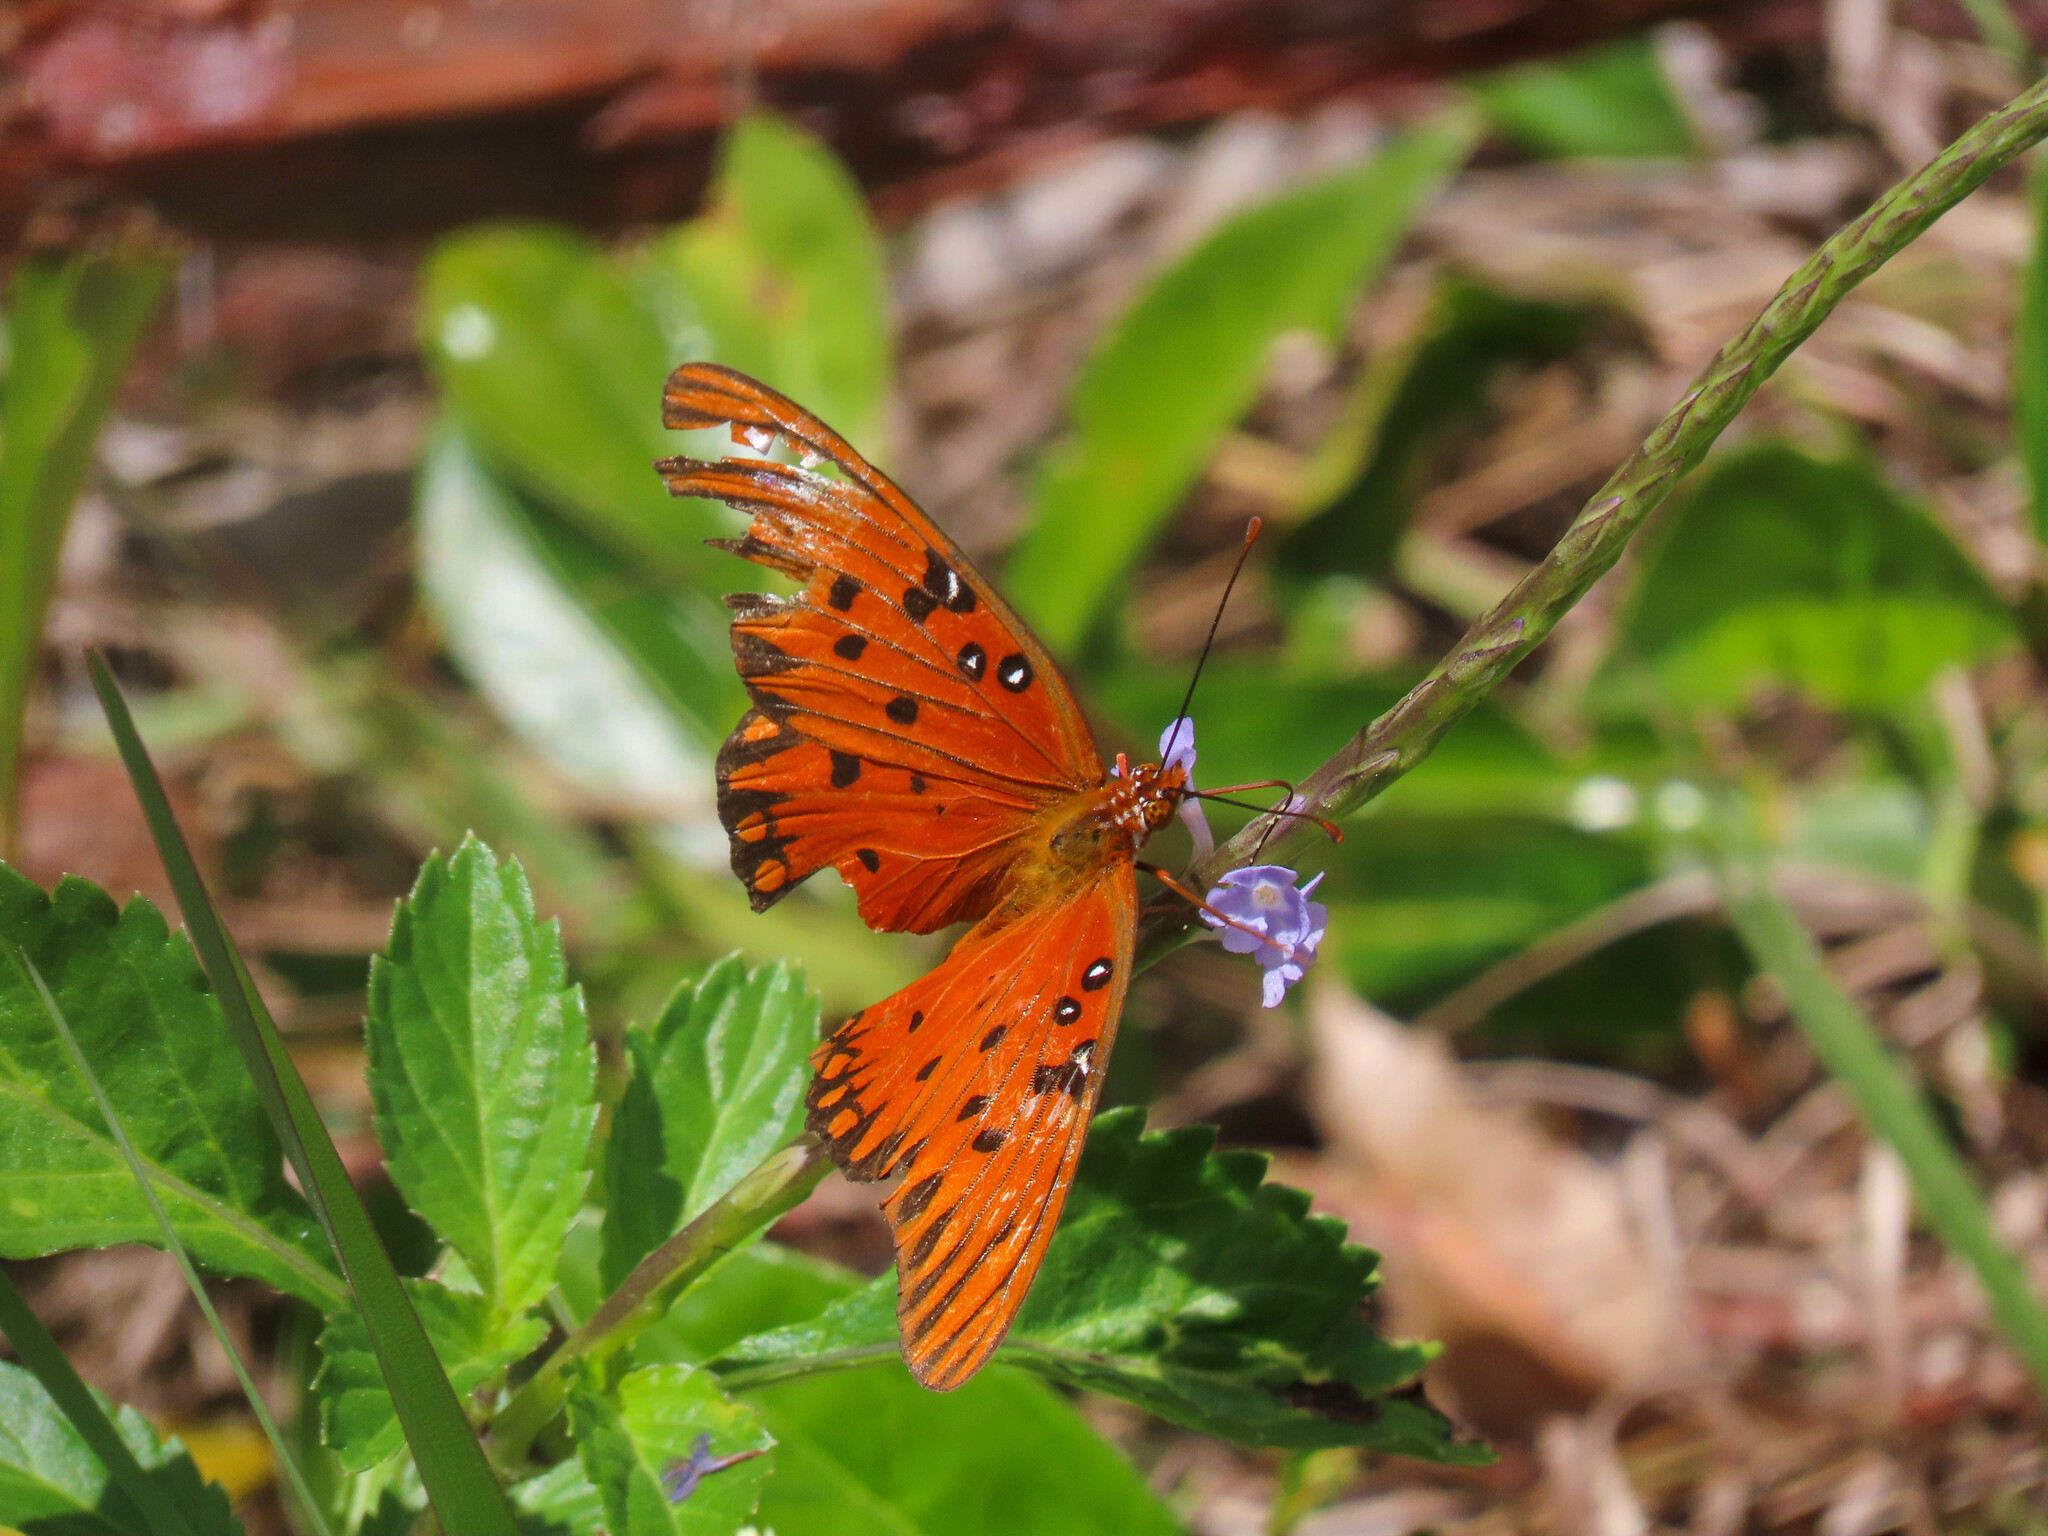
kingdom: Animalia
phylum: Arthropoda
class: Insecta
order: Lepidoptera
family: Nymphalidae
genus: Dione
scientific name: Dione vanillae
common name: Gulf fritillary
